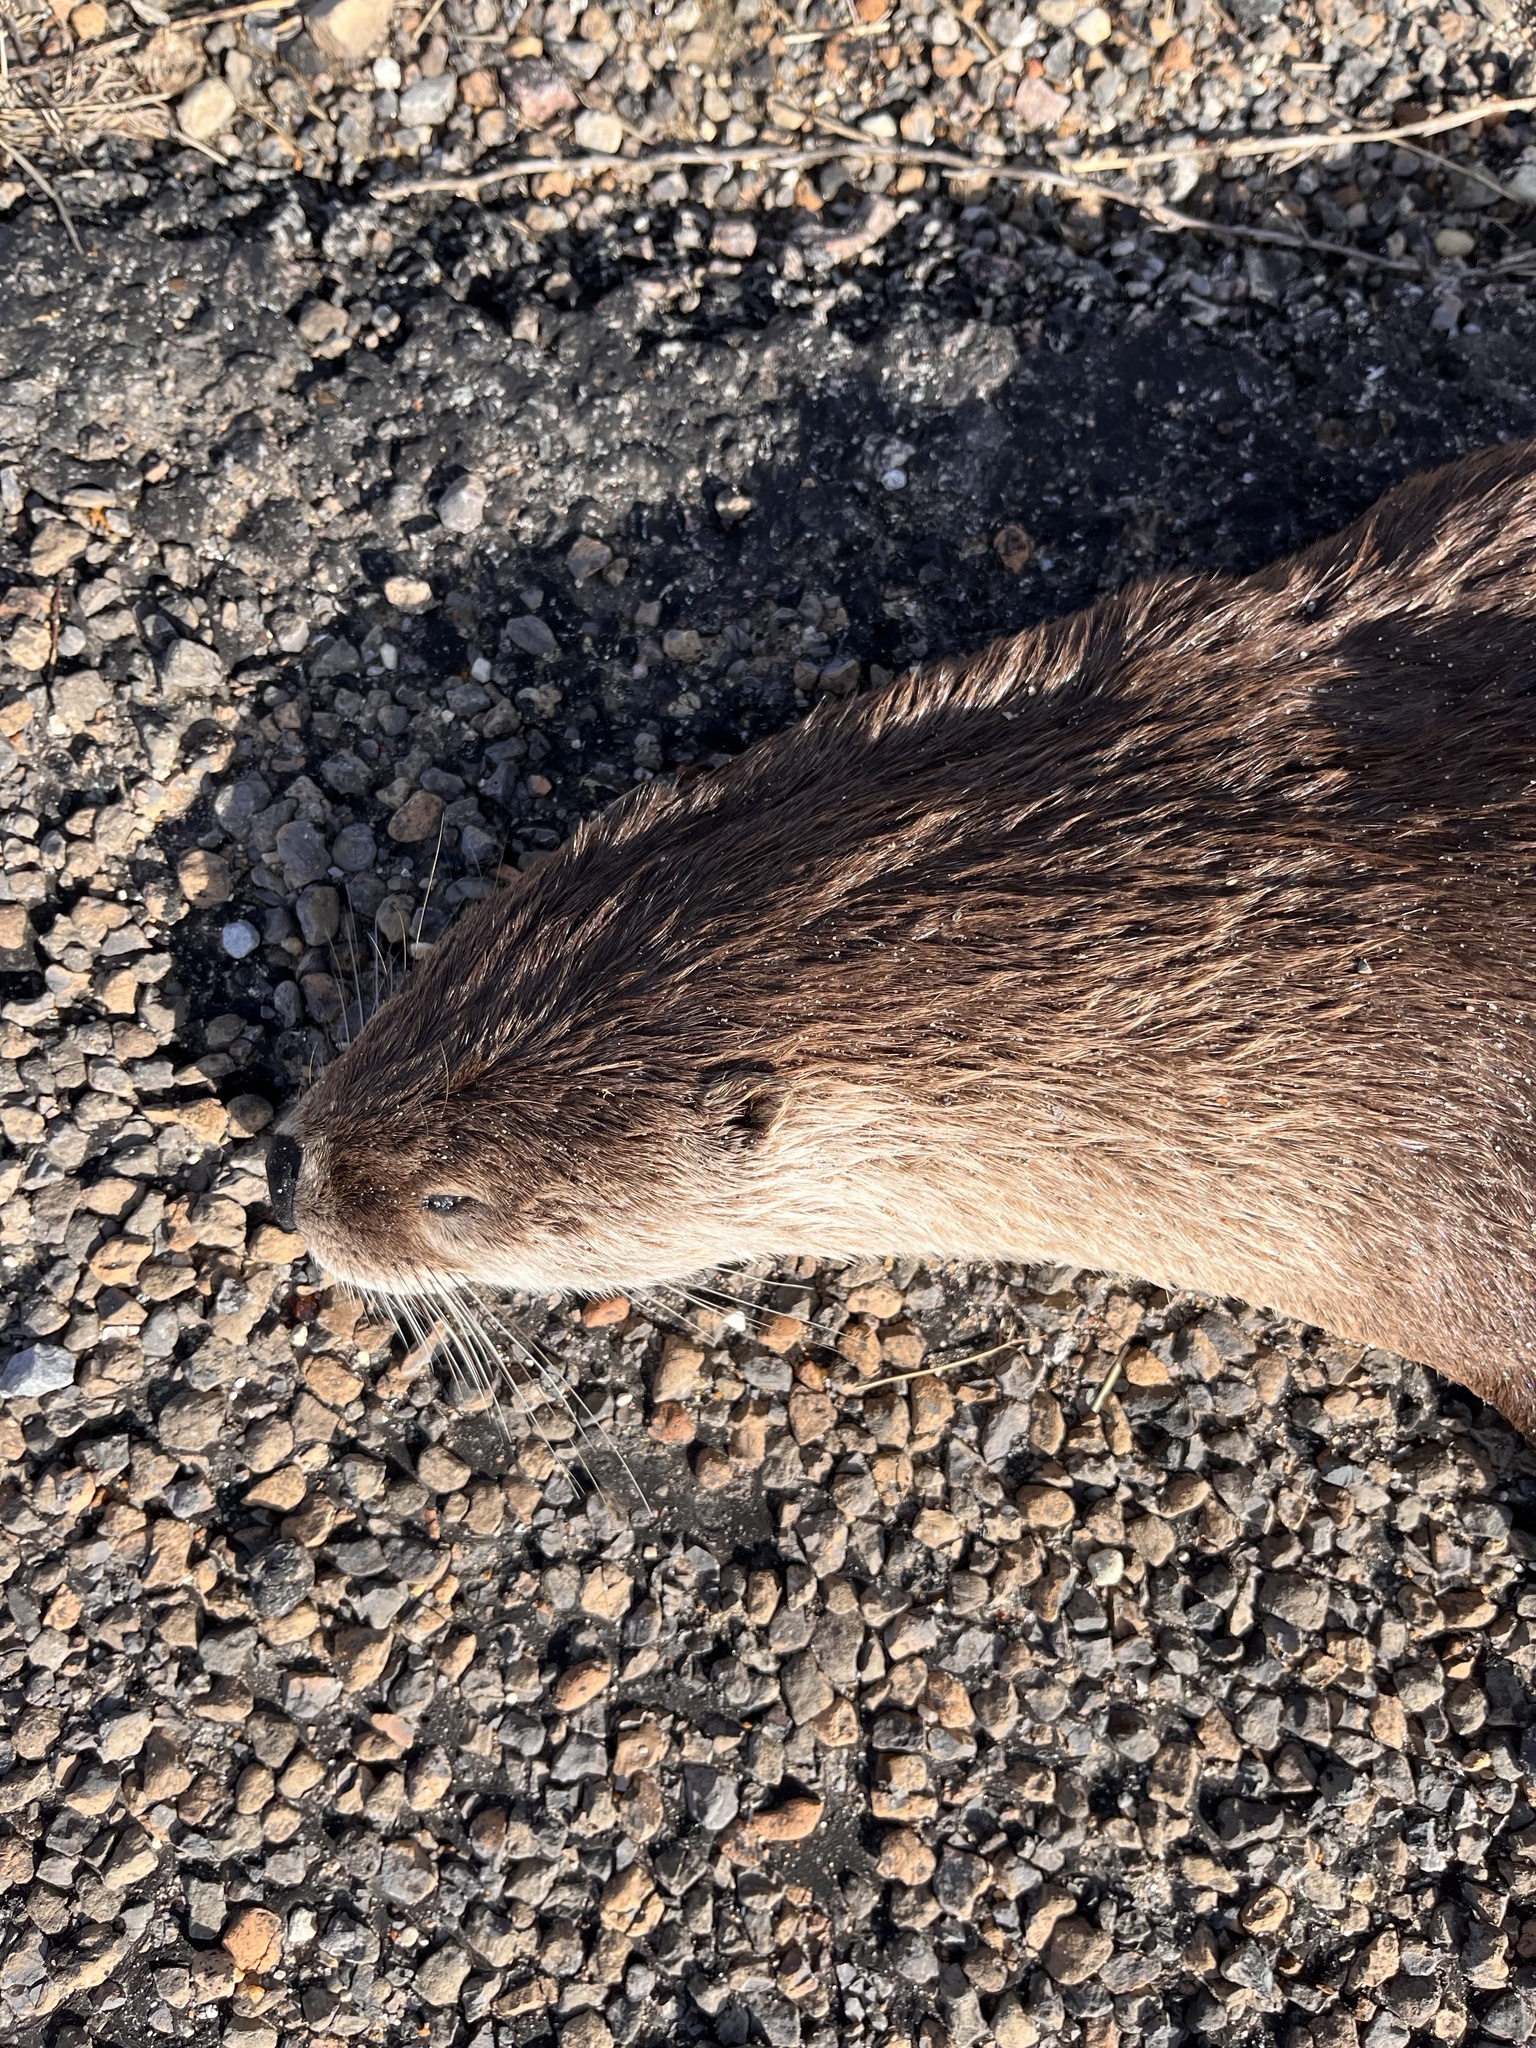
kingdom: Animalia
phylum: Chordata
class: Mammalia
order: Carnivora
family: Mustelidae
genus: Lontra
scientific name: Lontra canadensis
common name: North american river otter
